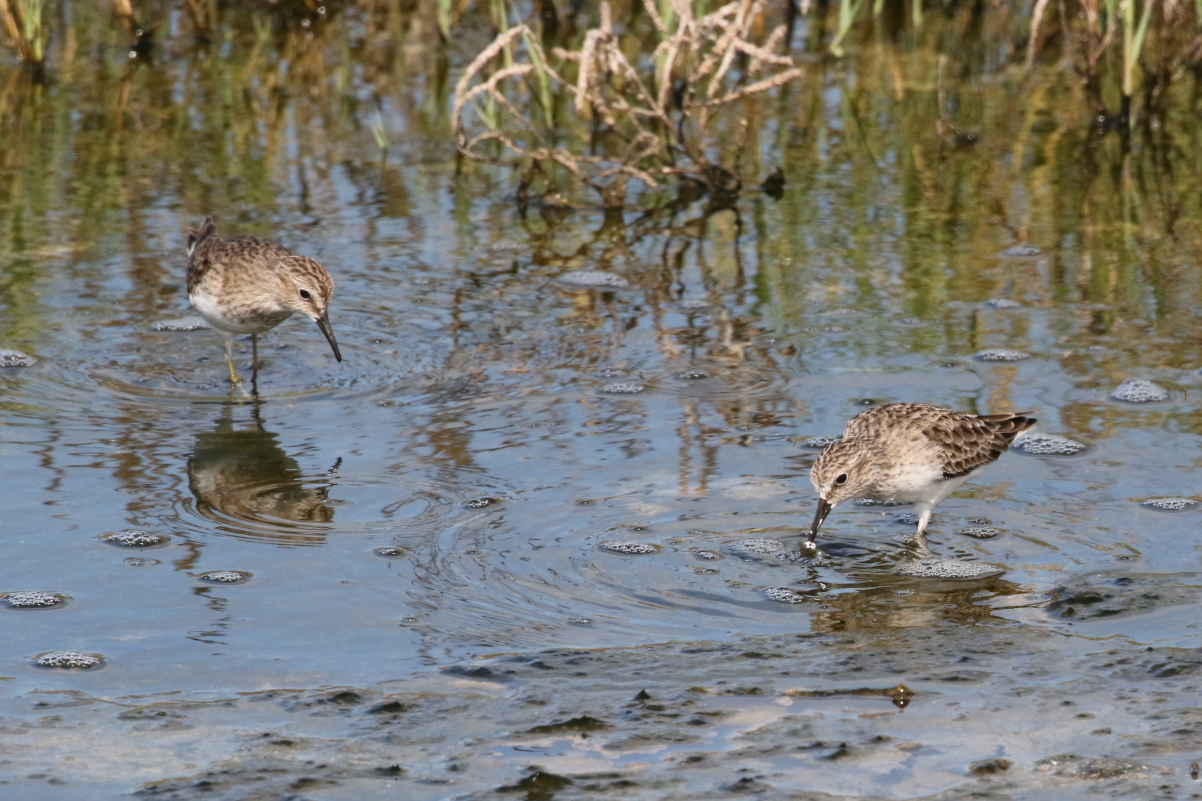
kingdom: Animalia
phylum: Chordata
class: Aves
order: Charadriiformes
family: Scolopacidae
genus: Calidris
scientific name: Calidris minutilla
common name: Least sandpiper
